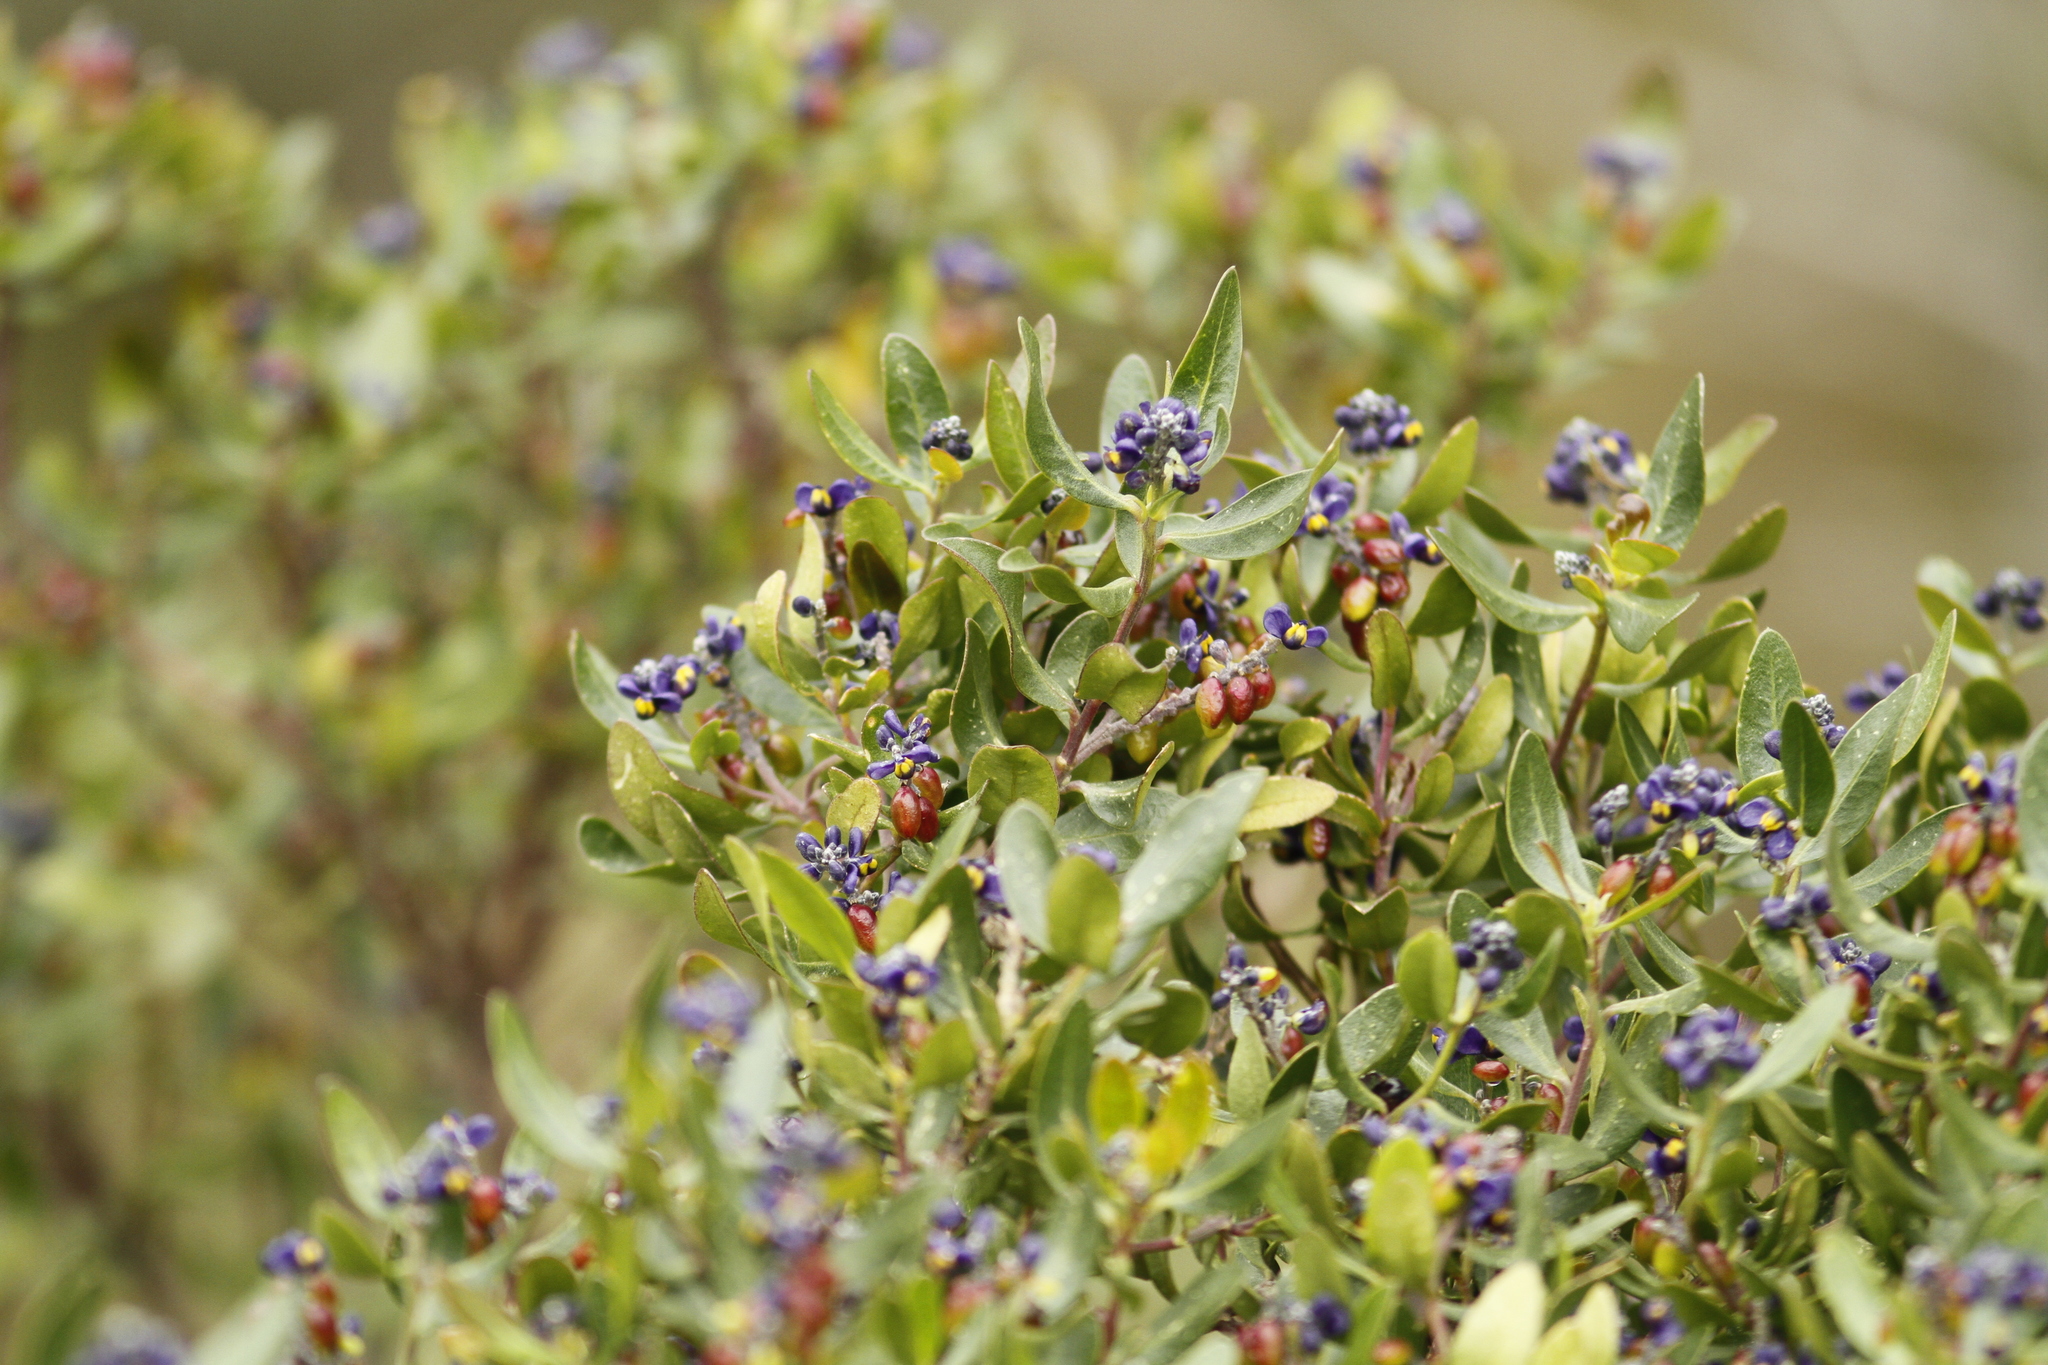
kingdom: Plantae
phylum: Tracheophyta
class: Magnoliopsida
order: Fabales
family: Polygalaceae
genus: Monnina
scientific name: Monnina crassifolia
